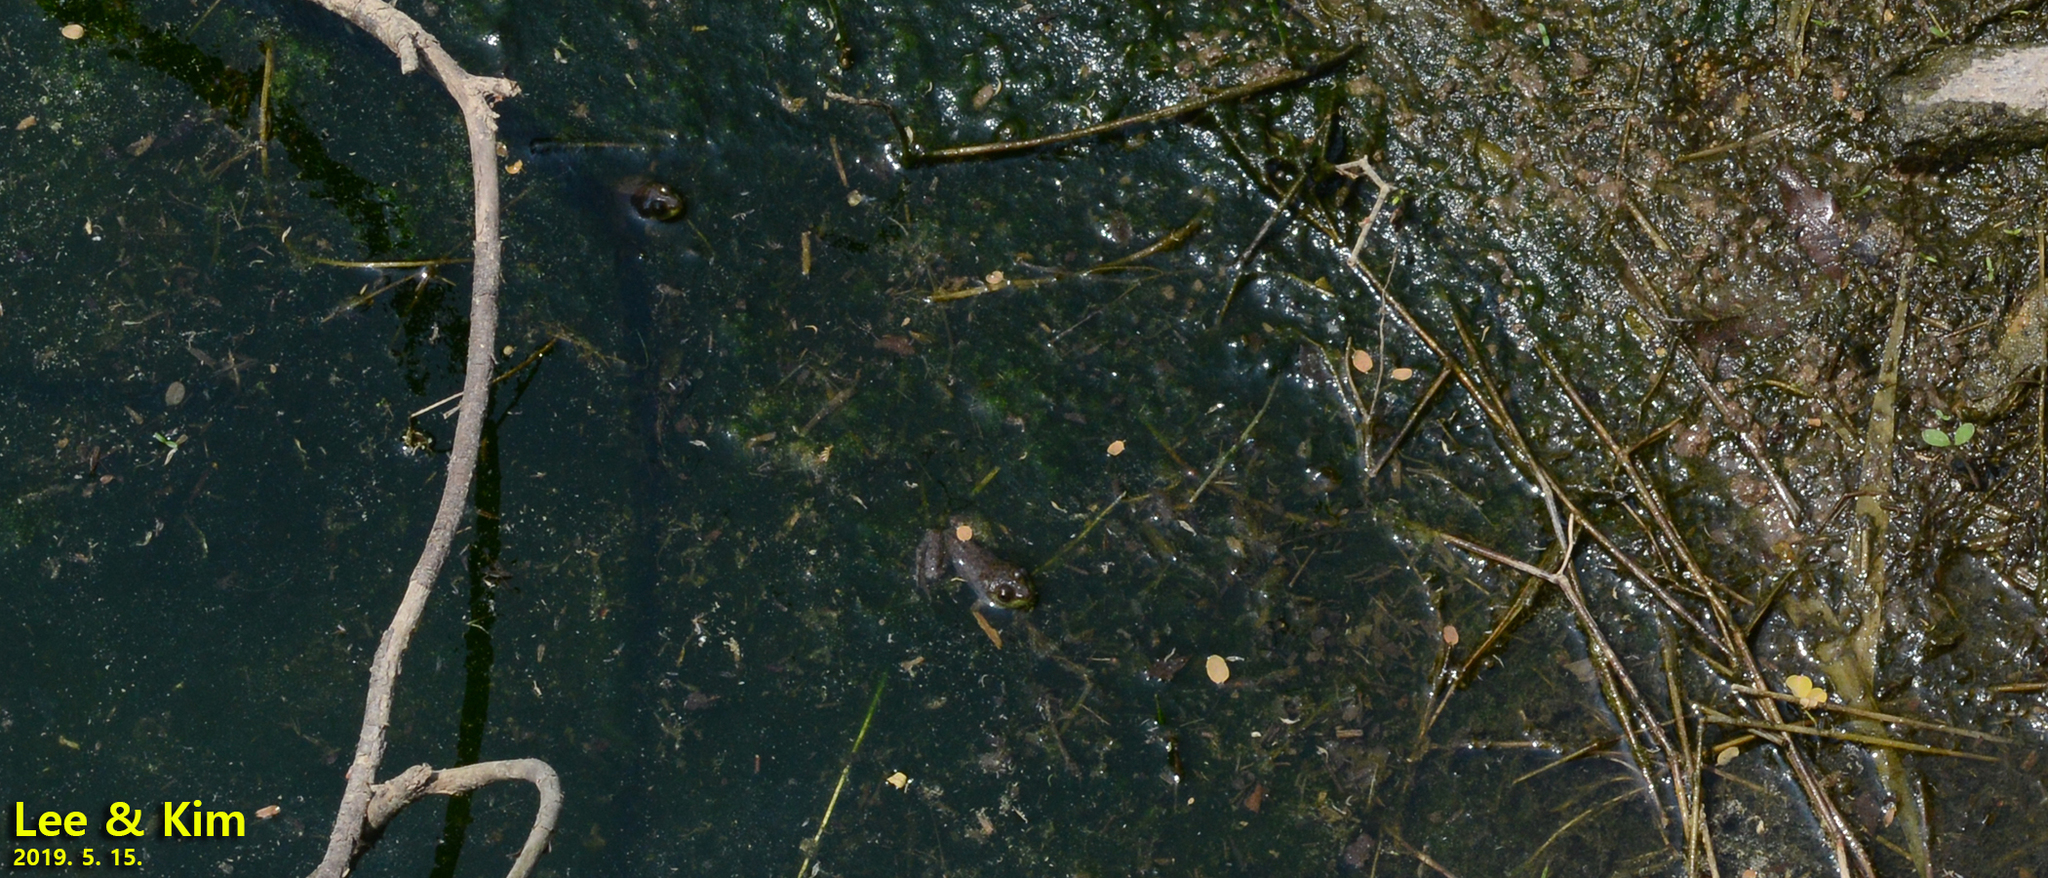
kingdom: Animalia
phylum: Chordata
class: Amphibia
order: Anura
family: Ranidae
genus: Lithobates
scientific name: Lithobates catesbeianus
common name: American bullfrog
